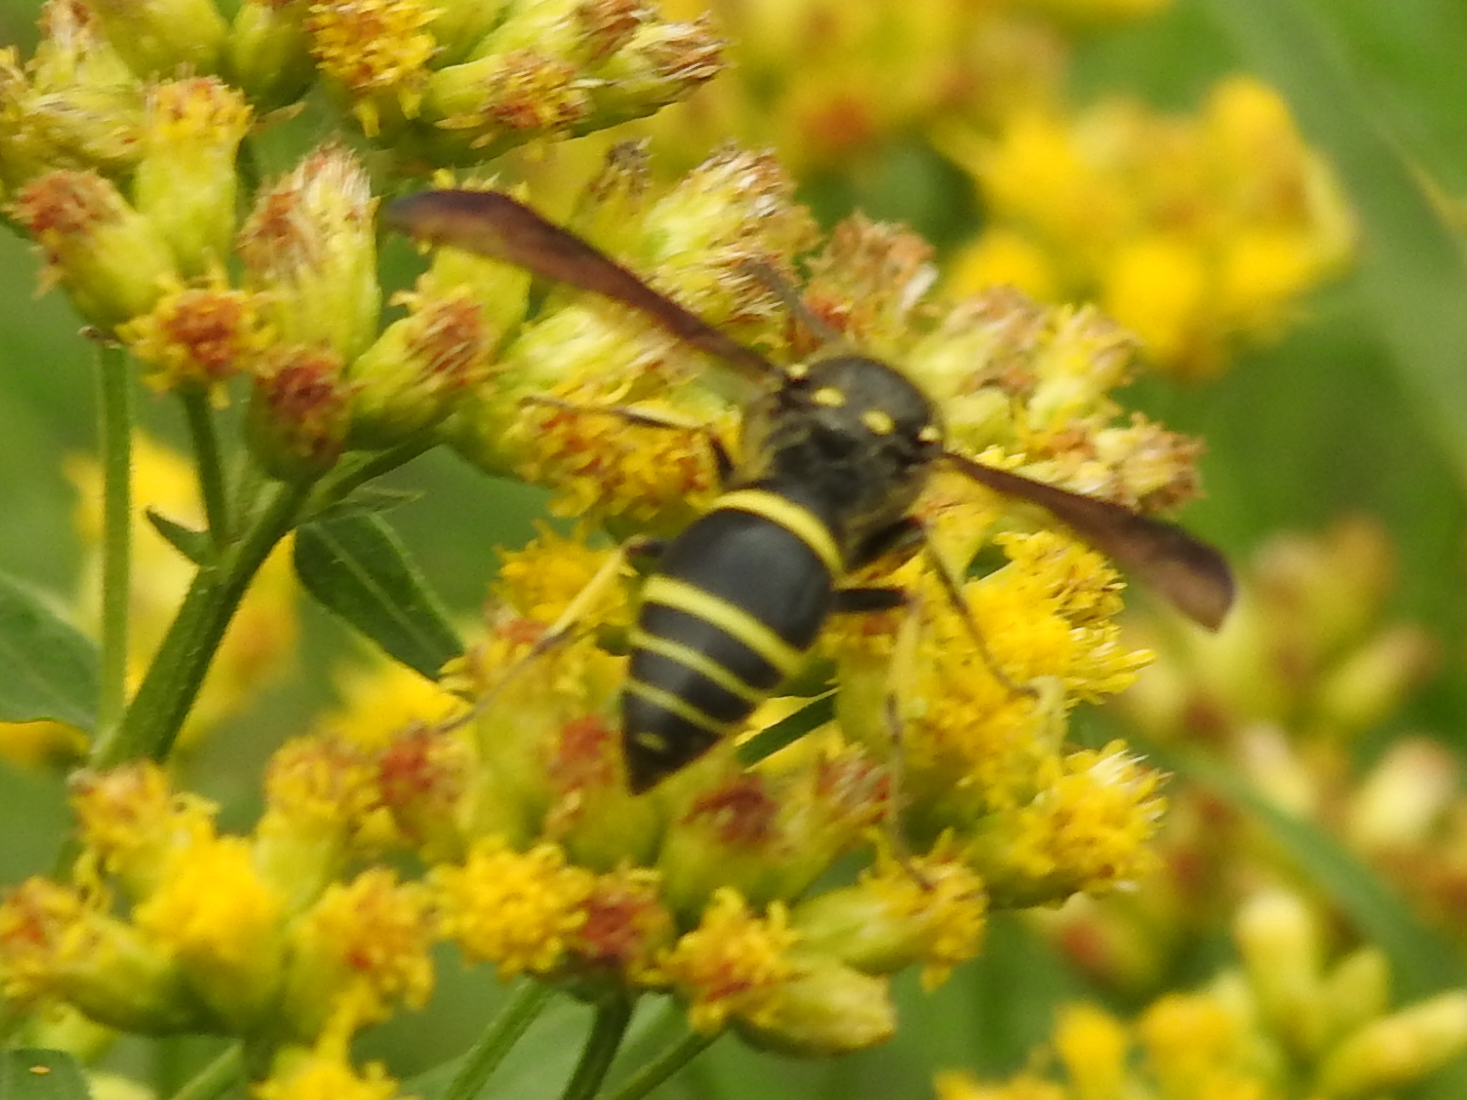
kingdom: Animalia
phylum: Arthropoda
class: Insecta
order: Hymenoptera
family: Vespidae
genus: Ancistrocerus
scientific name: Ancistrocerus
